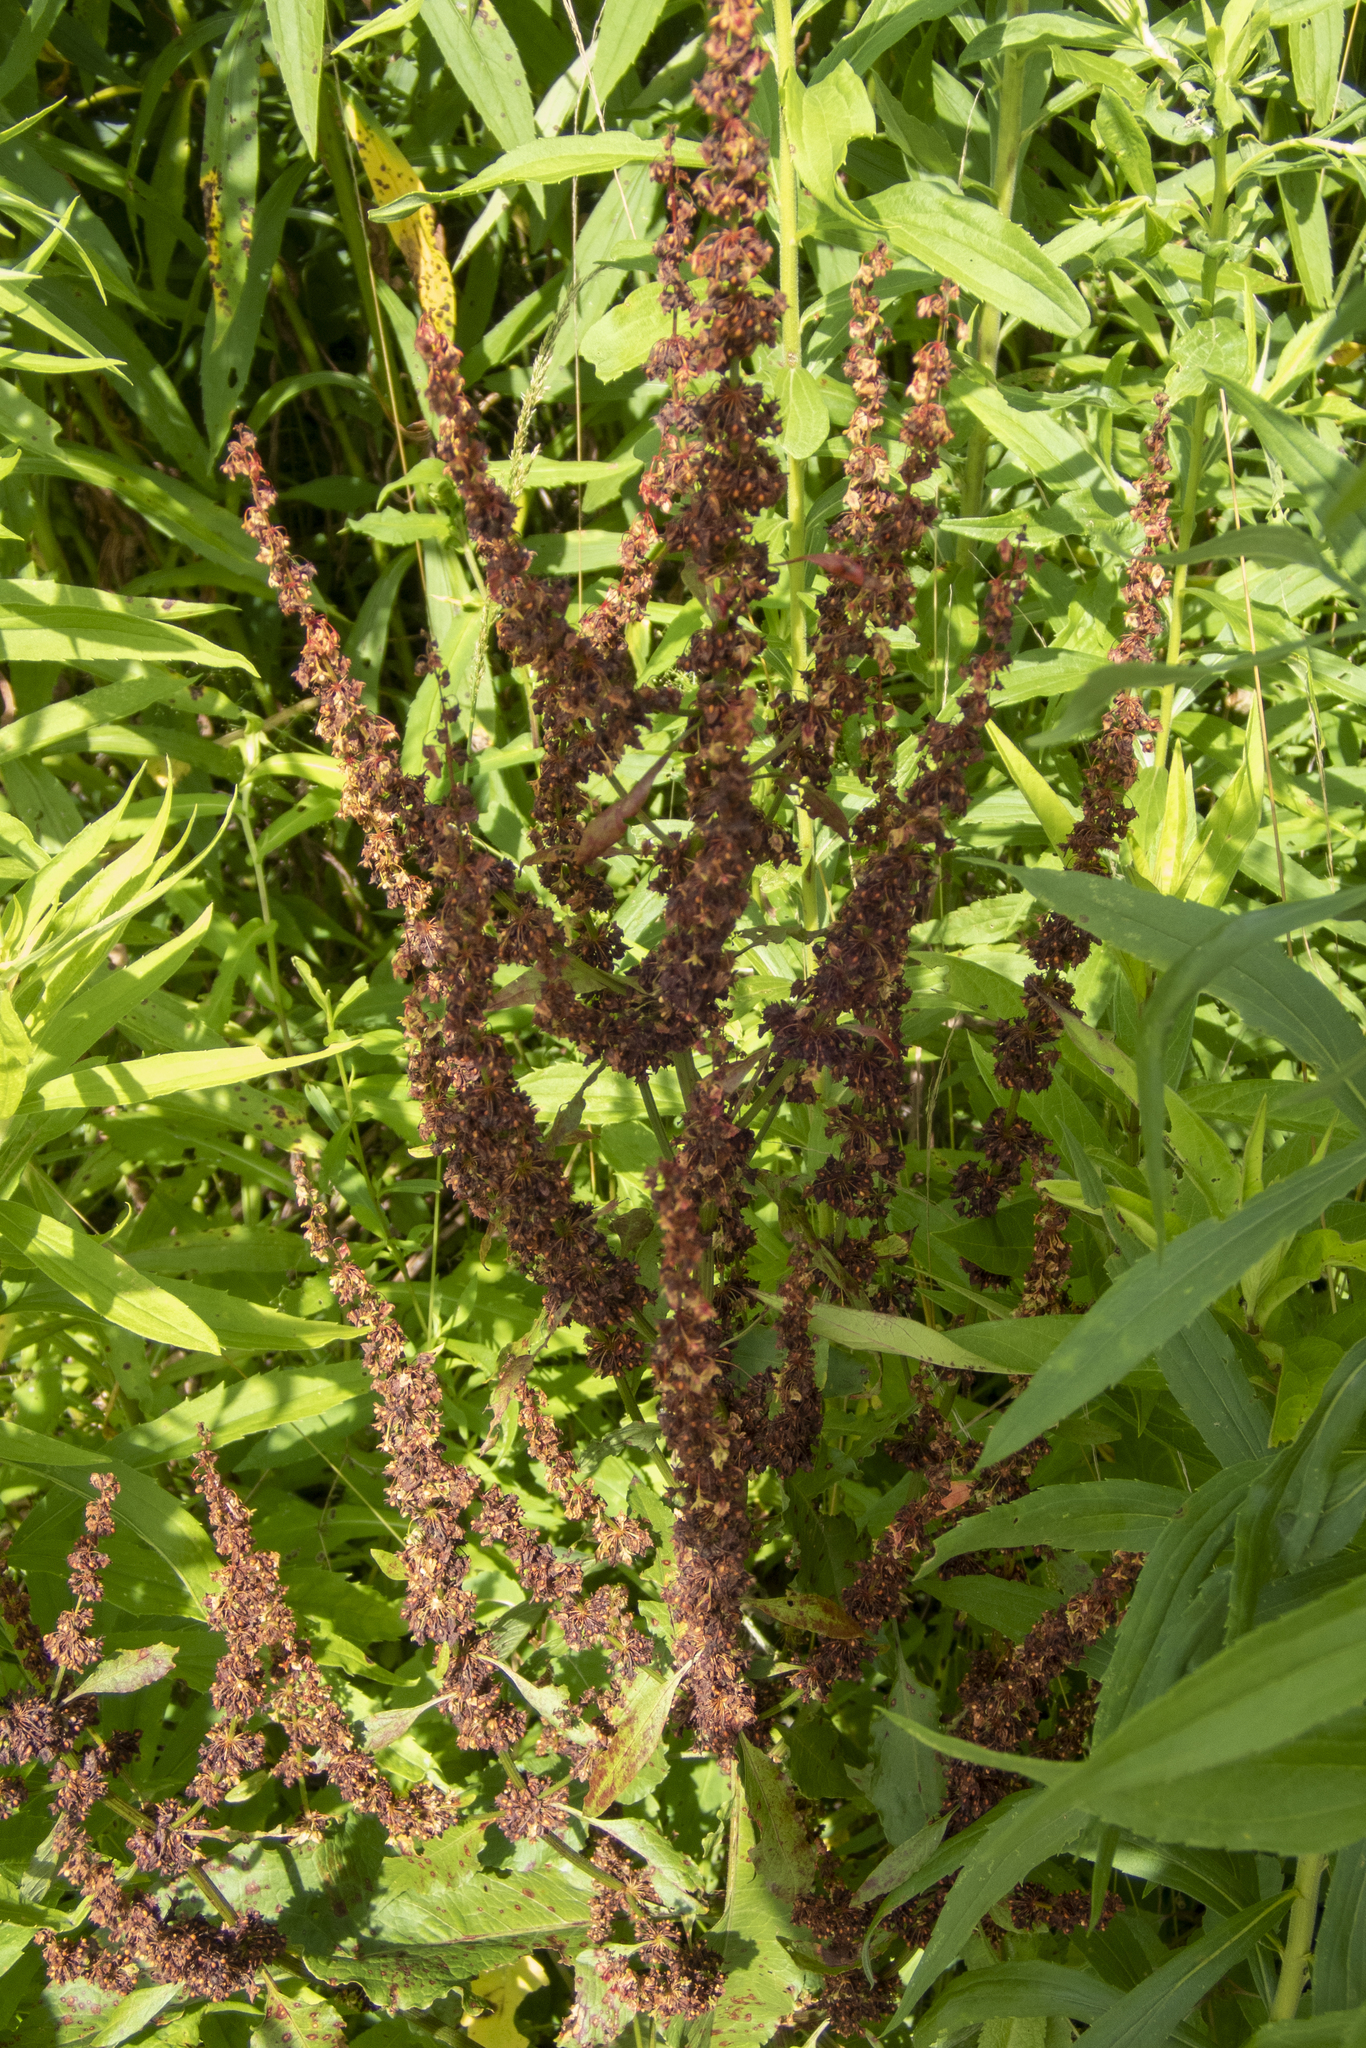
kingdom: Plantae
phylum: Tracheophyta
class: Magnoliopsida
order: Caryophyllales
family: Polygonaceae
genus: Rumex
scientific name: Rumex obtusifolius
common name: Bitter dock
